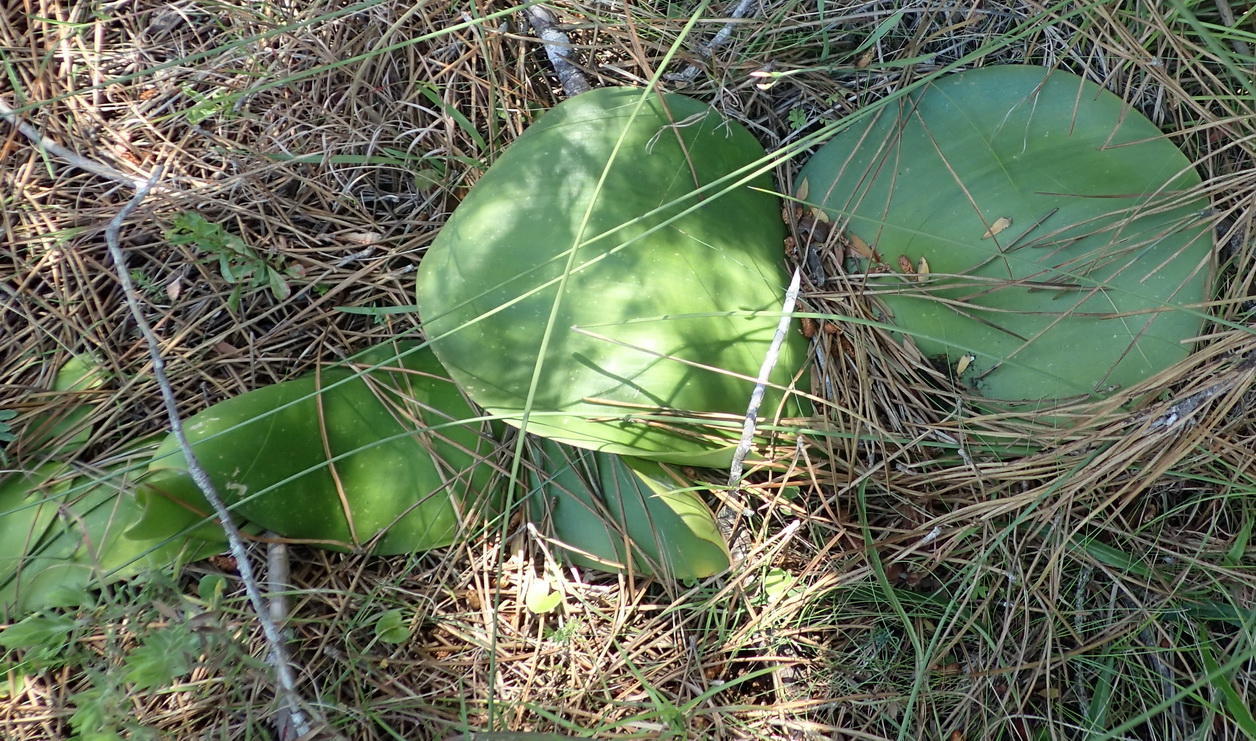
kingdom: Plantae
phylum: Tracheophyta
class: Liliopsida
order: Asparagales
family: Amaryllidaceae
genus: Haemanthus
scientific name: Haemanthus sanguineus
